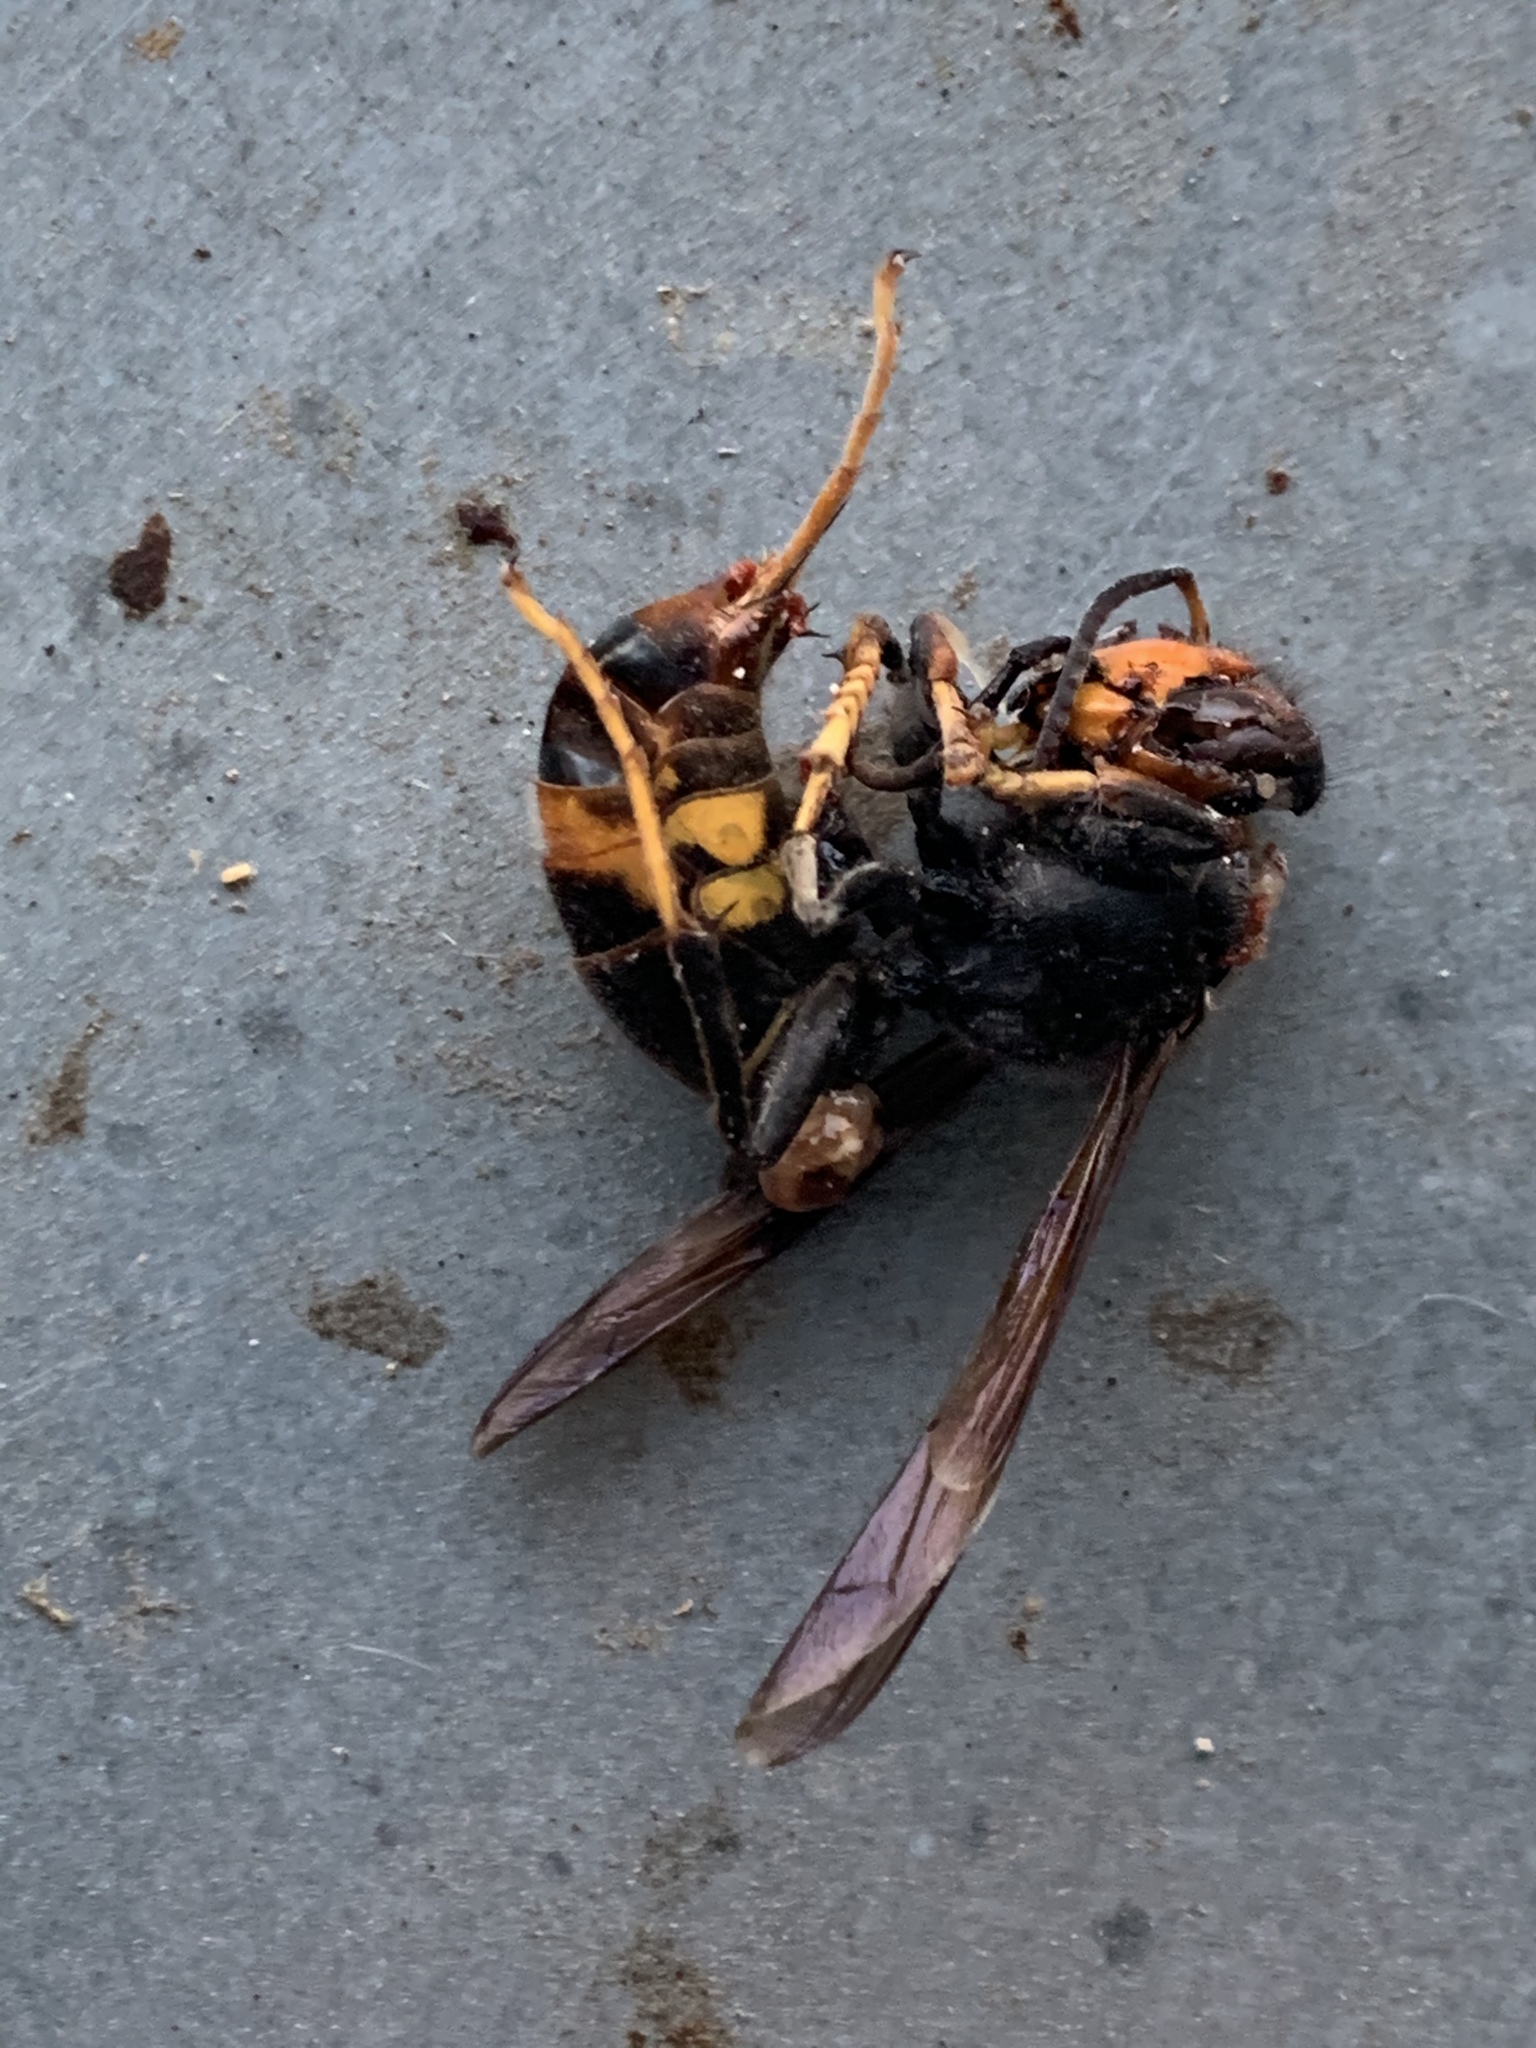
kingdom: Animalia
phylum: Arthropoda
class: Insecta
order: Hymenoptera
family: Vespidae
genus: Vespa
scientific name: Vespa velutina
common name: Asian hornet
